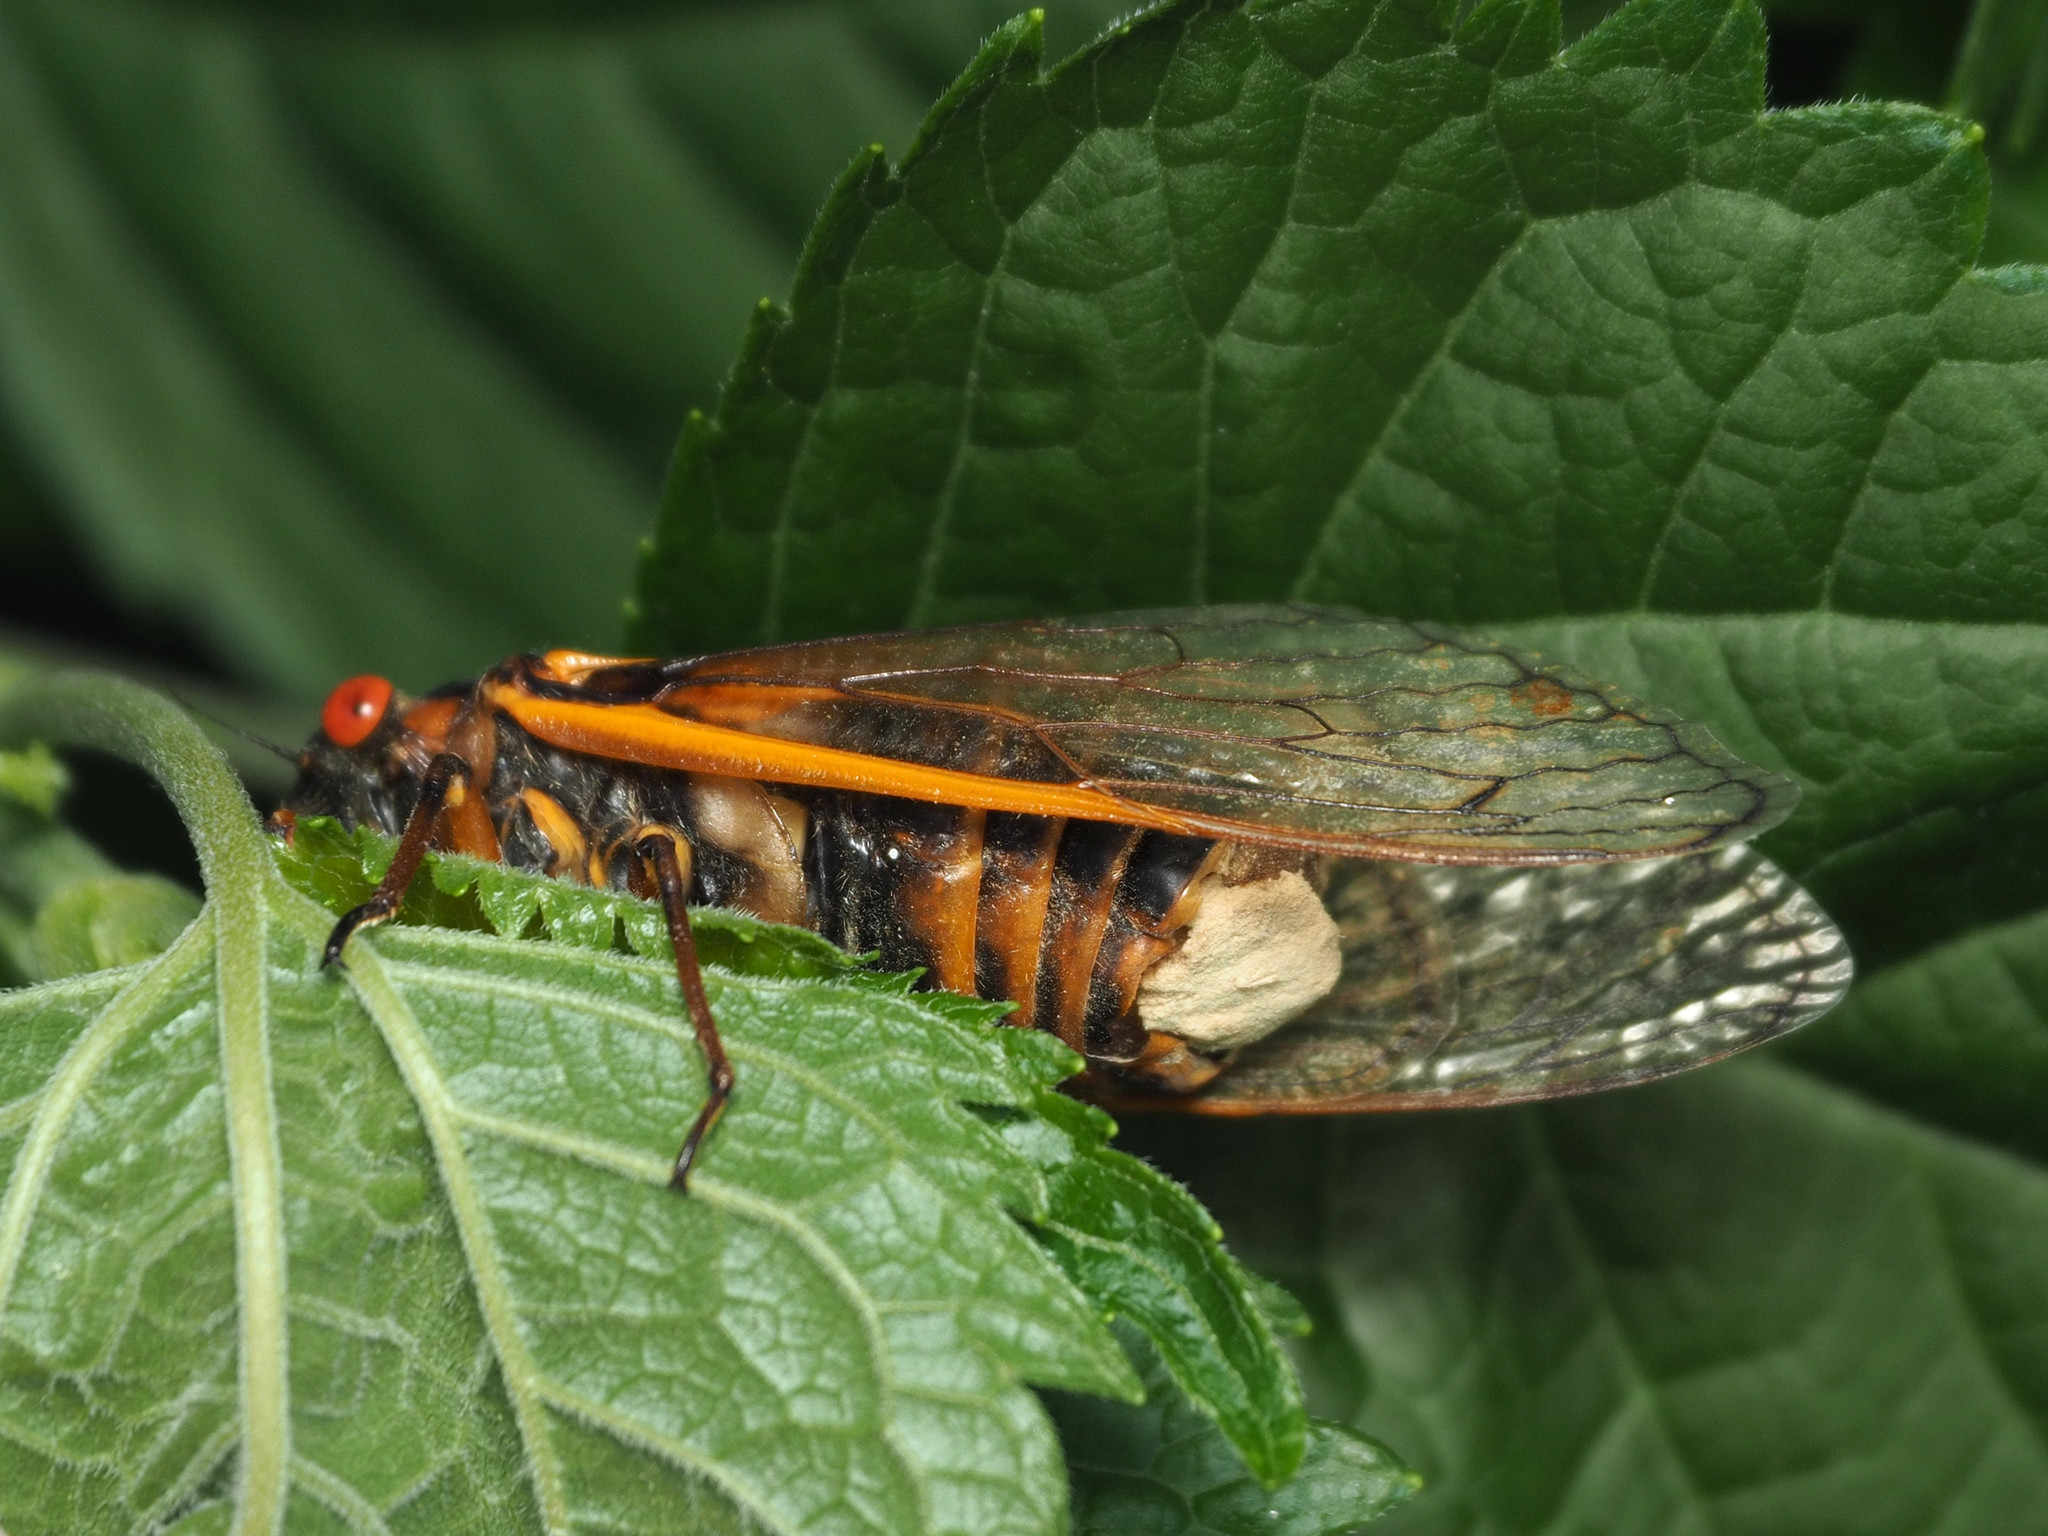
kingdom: Fungi
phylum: Entomophthoromycota
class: Entomophthoromycetes
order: Entomophthorales
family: Entomophthoraceae
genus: Massospora
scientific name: Massospora cicadina
